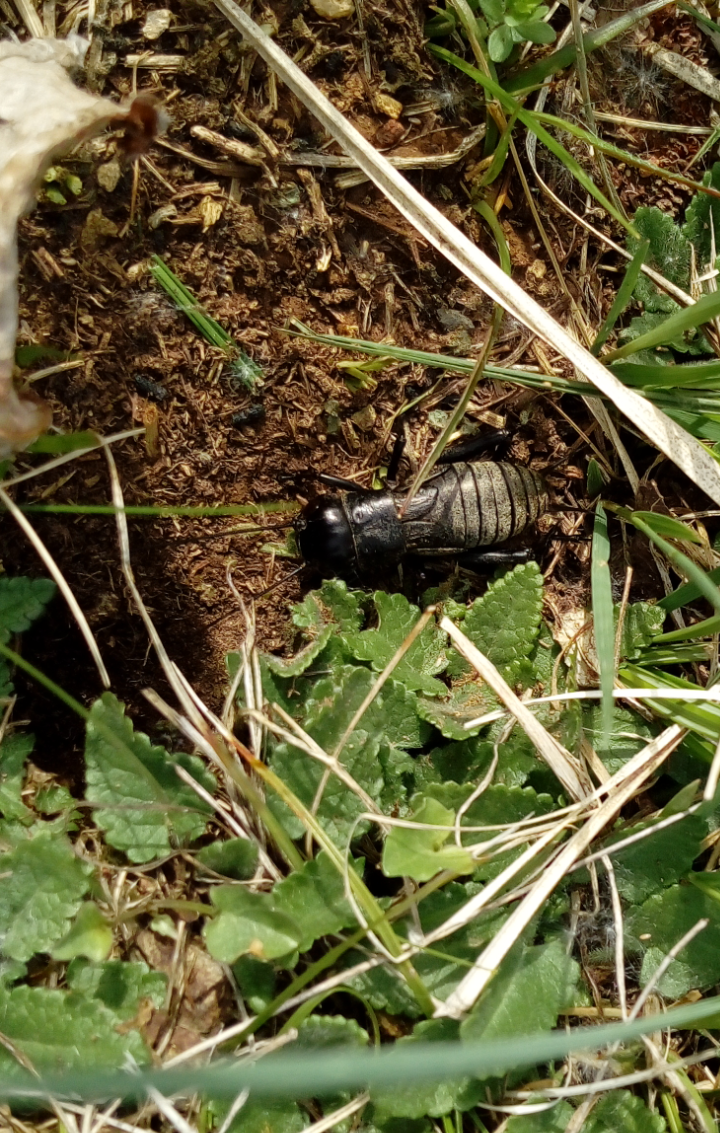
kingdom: Animalia
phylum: Arthropoda
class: Insecta
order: Orthoptera
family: Gryllidae
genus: Gryllus
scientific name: Gryllus campestris
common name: Field cricket
